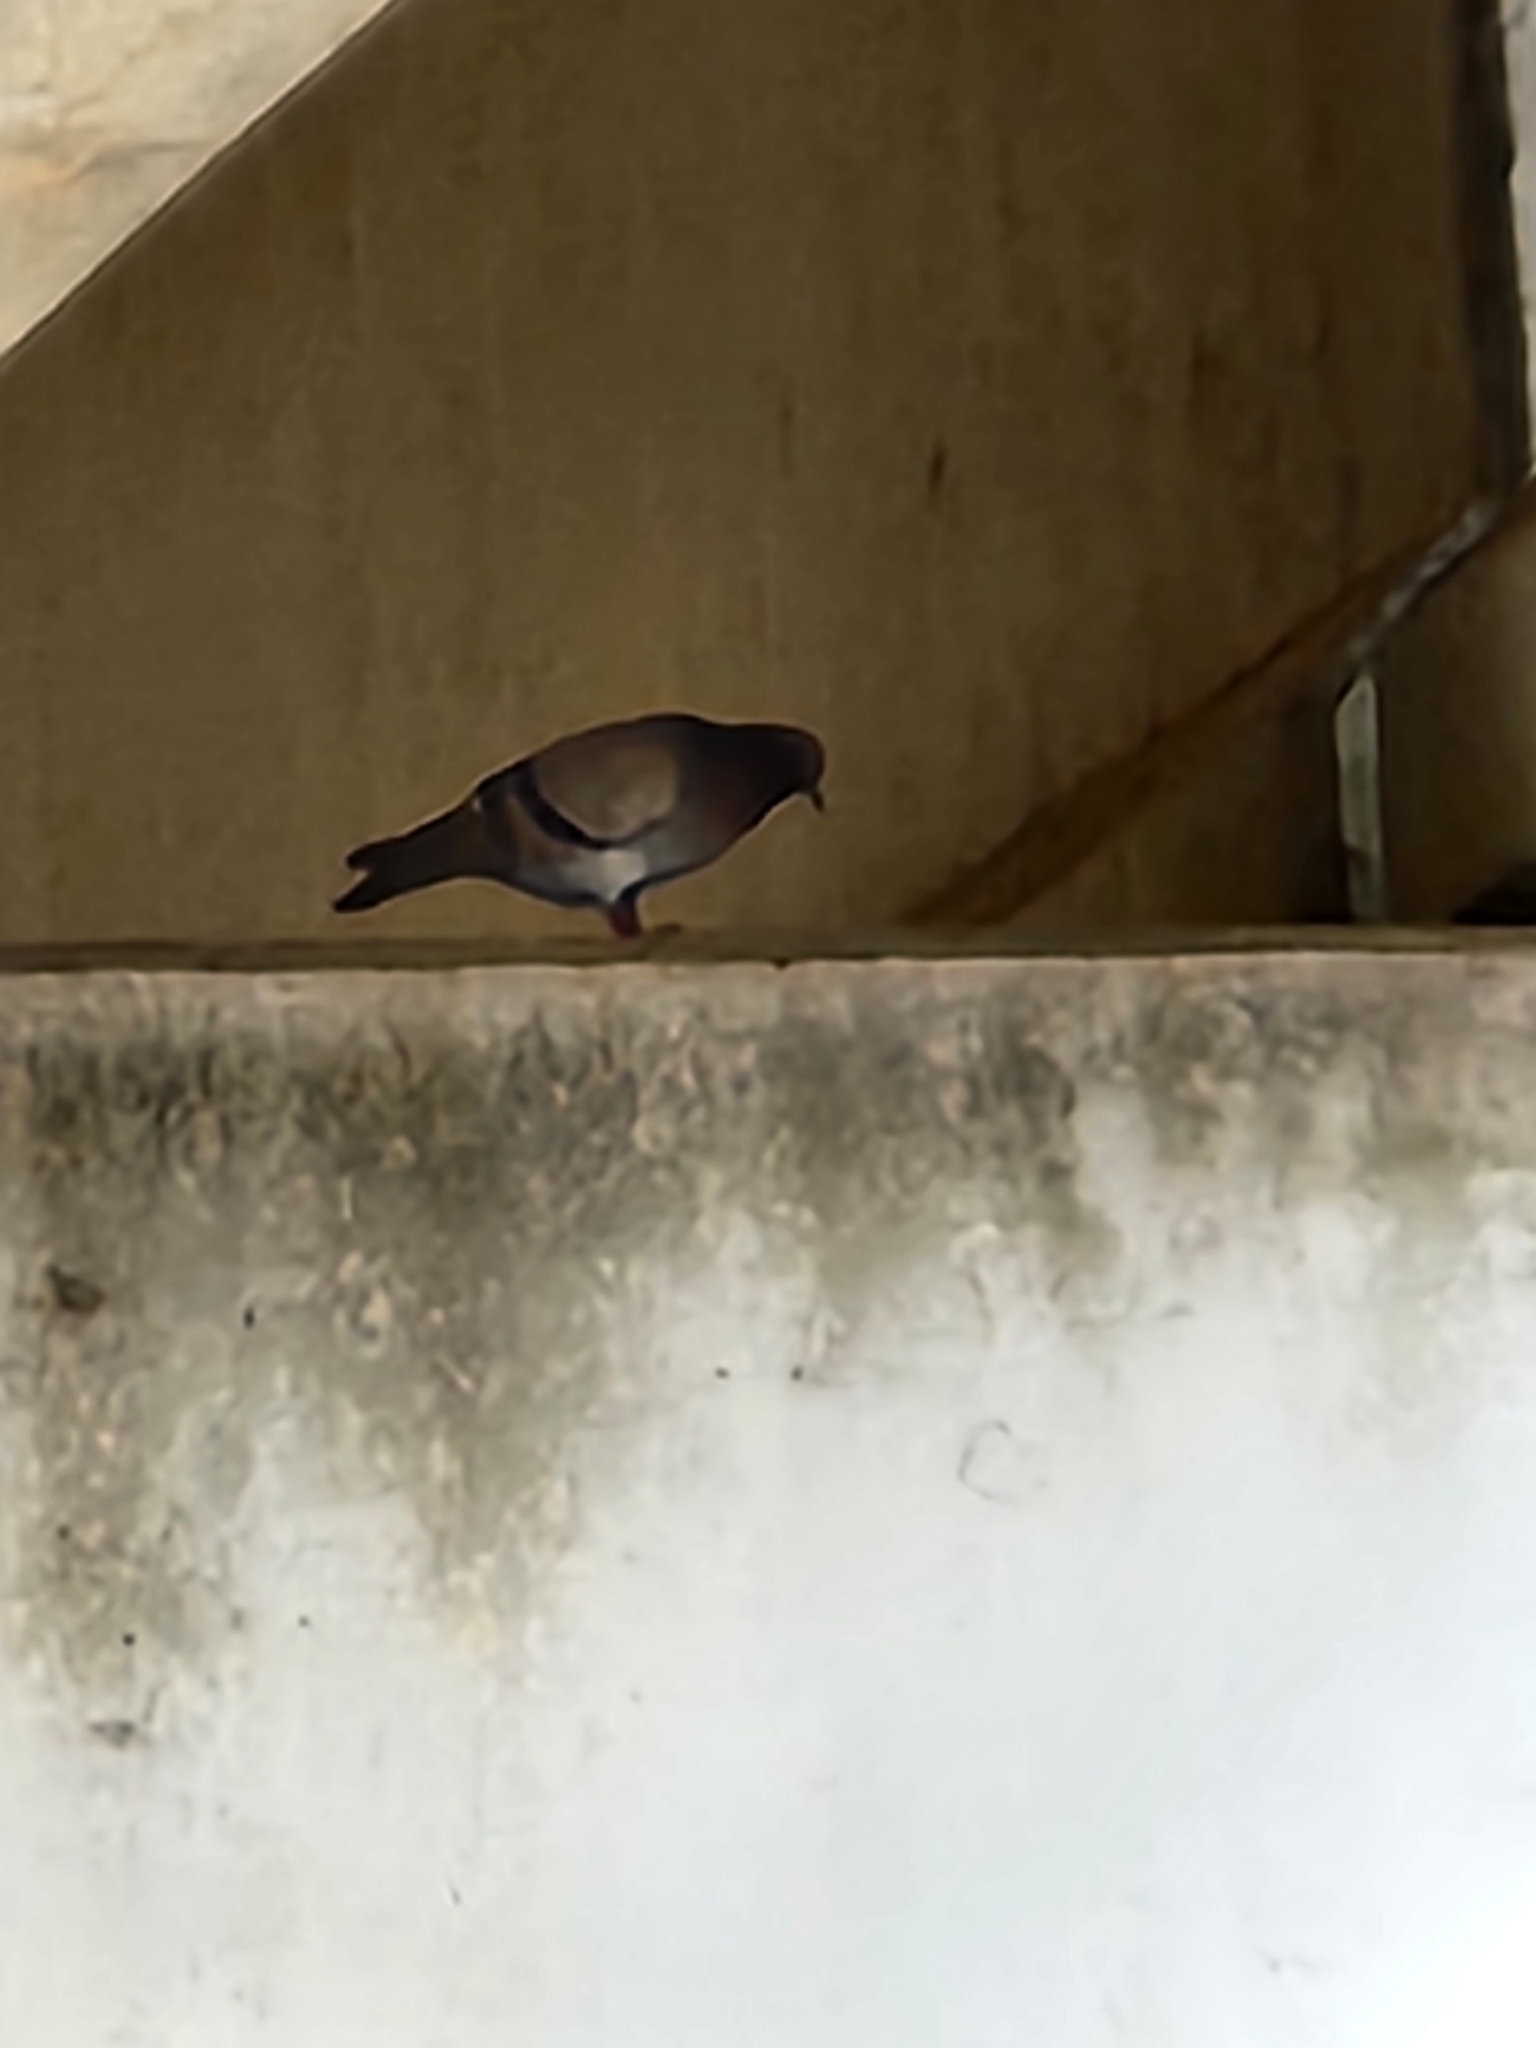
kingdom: Animalia
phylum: Chordata
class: Aves
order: Columbiformes
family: Columbidae
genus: Columba
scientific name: Columba livia
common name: Rock pigeon
